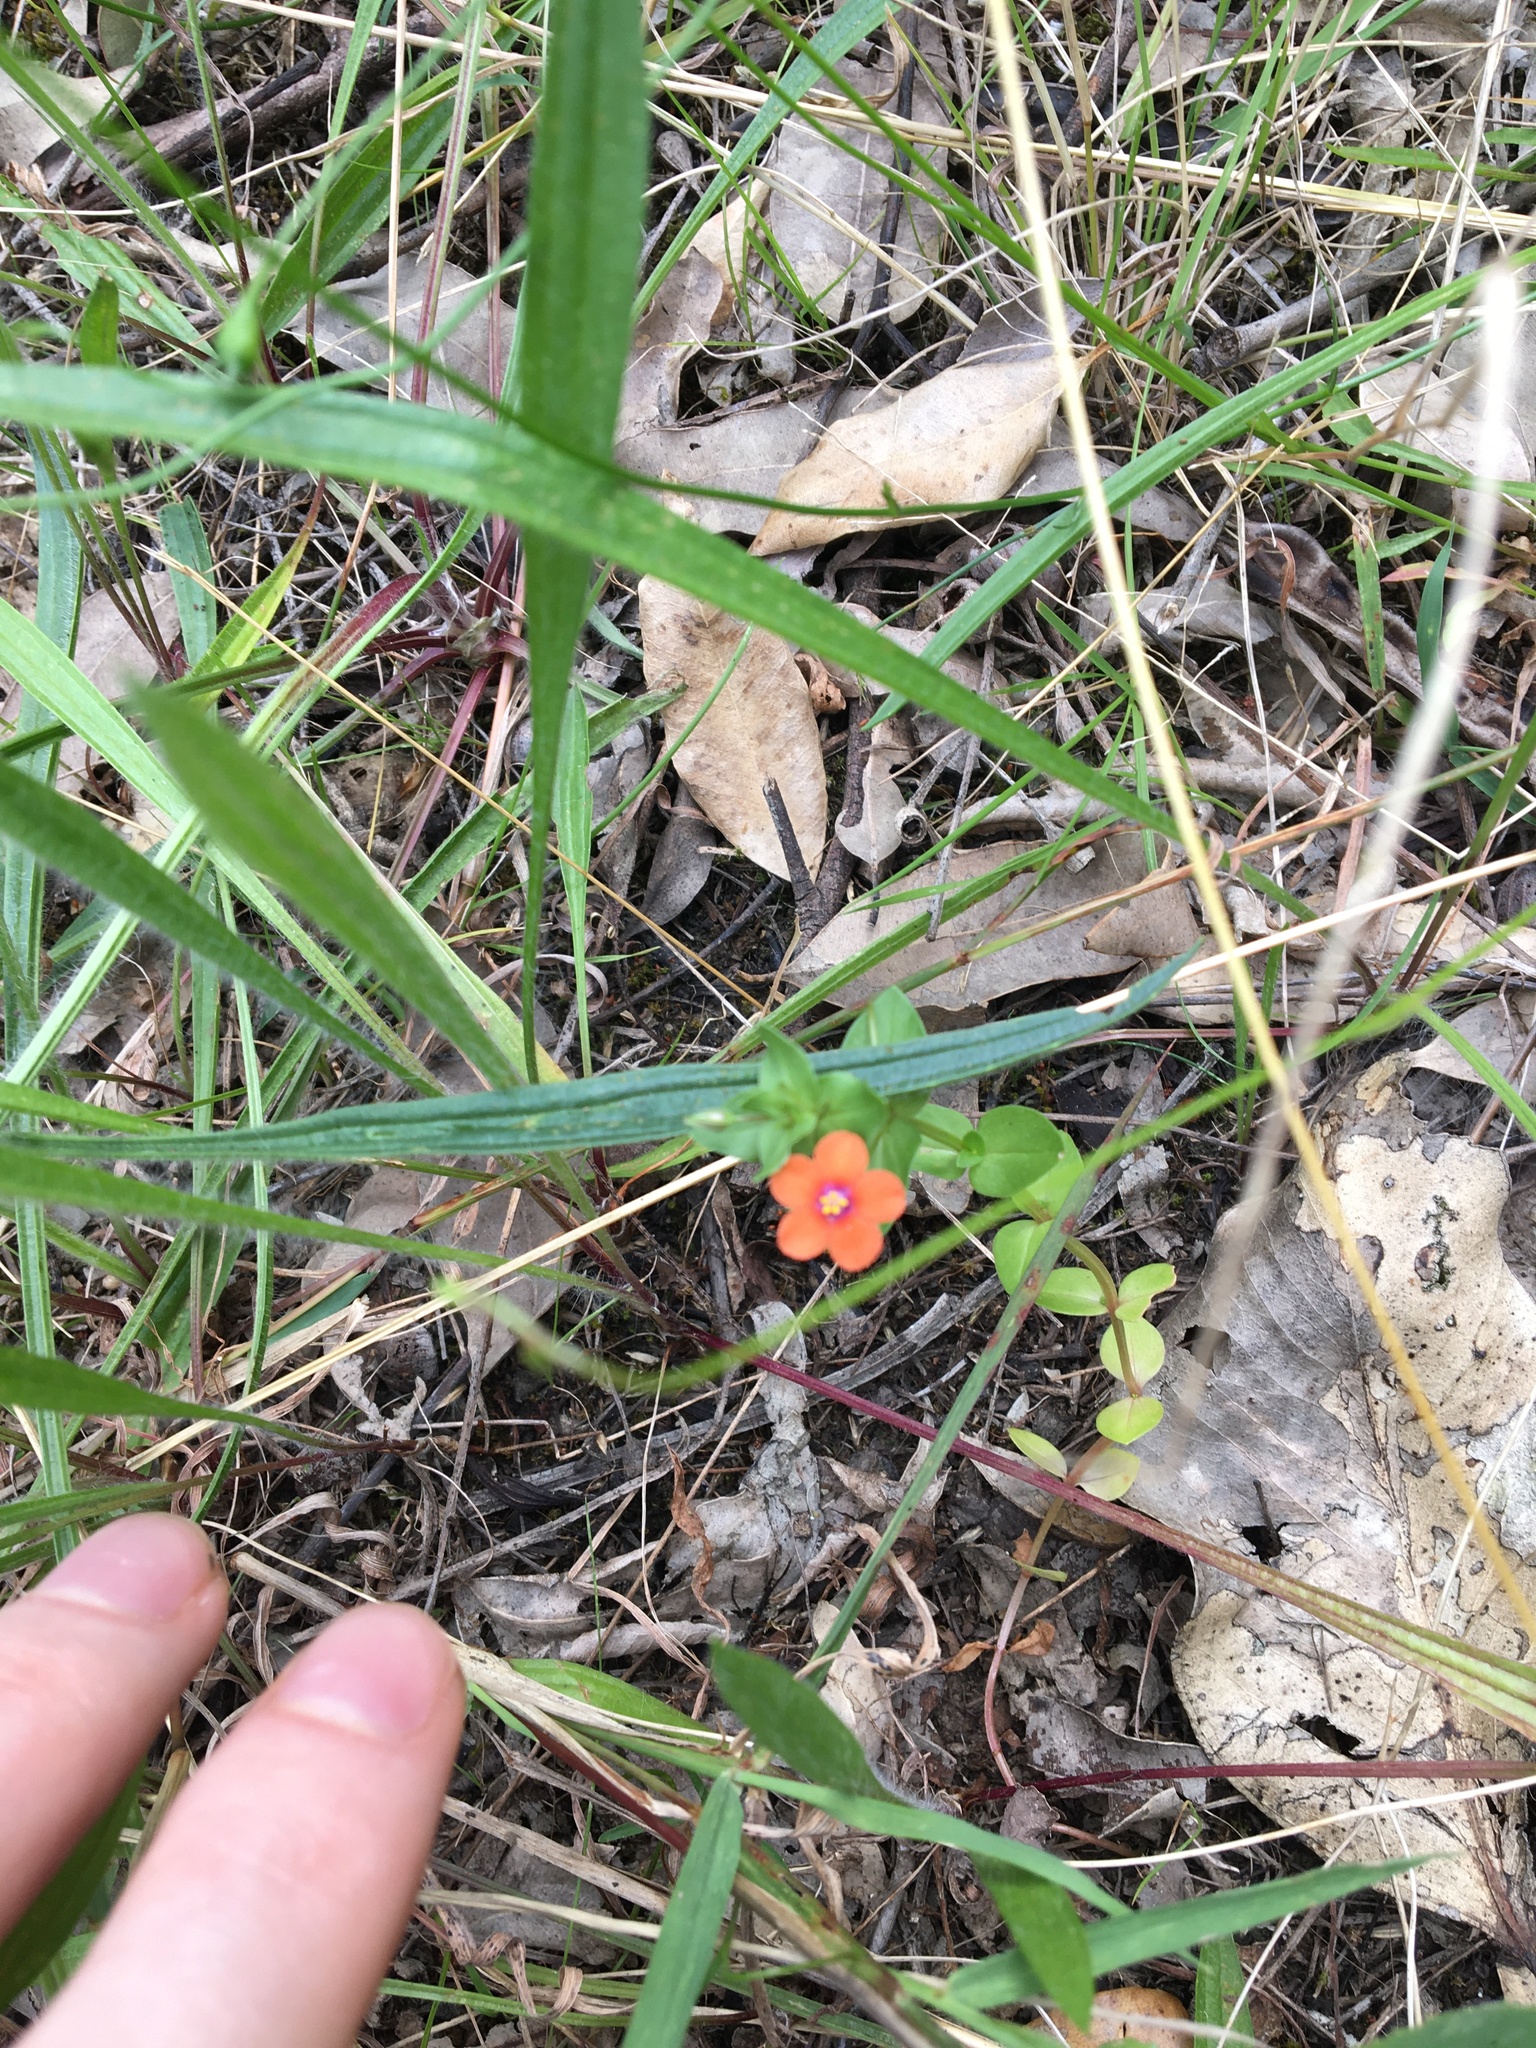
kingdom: Plantae
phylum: Tracheophyta
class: Magnoliopsida
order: Ericales
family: Primulaceae
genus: Lysimachia
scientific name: Lysimachia arvensis
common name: Scarlet pimpernel
